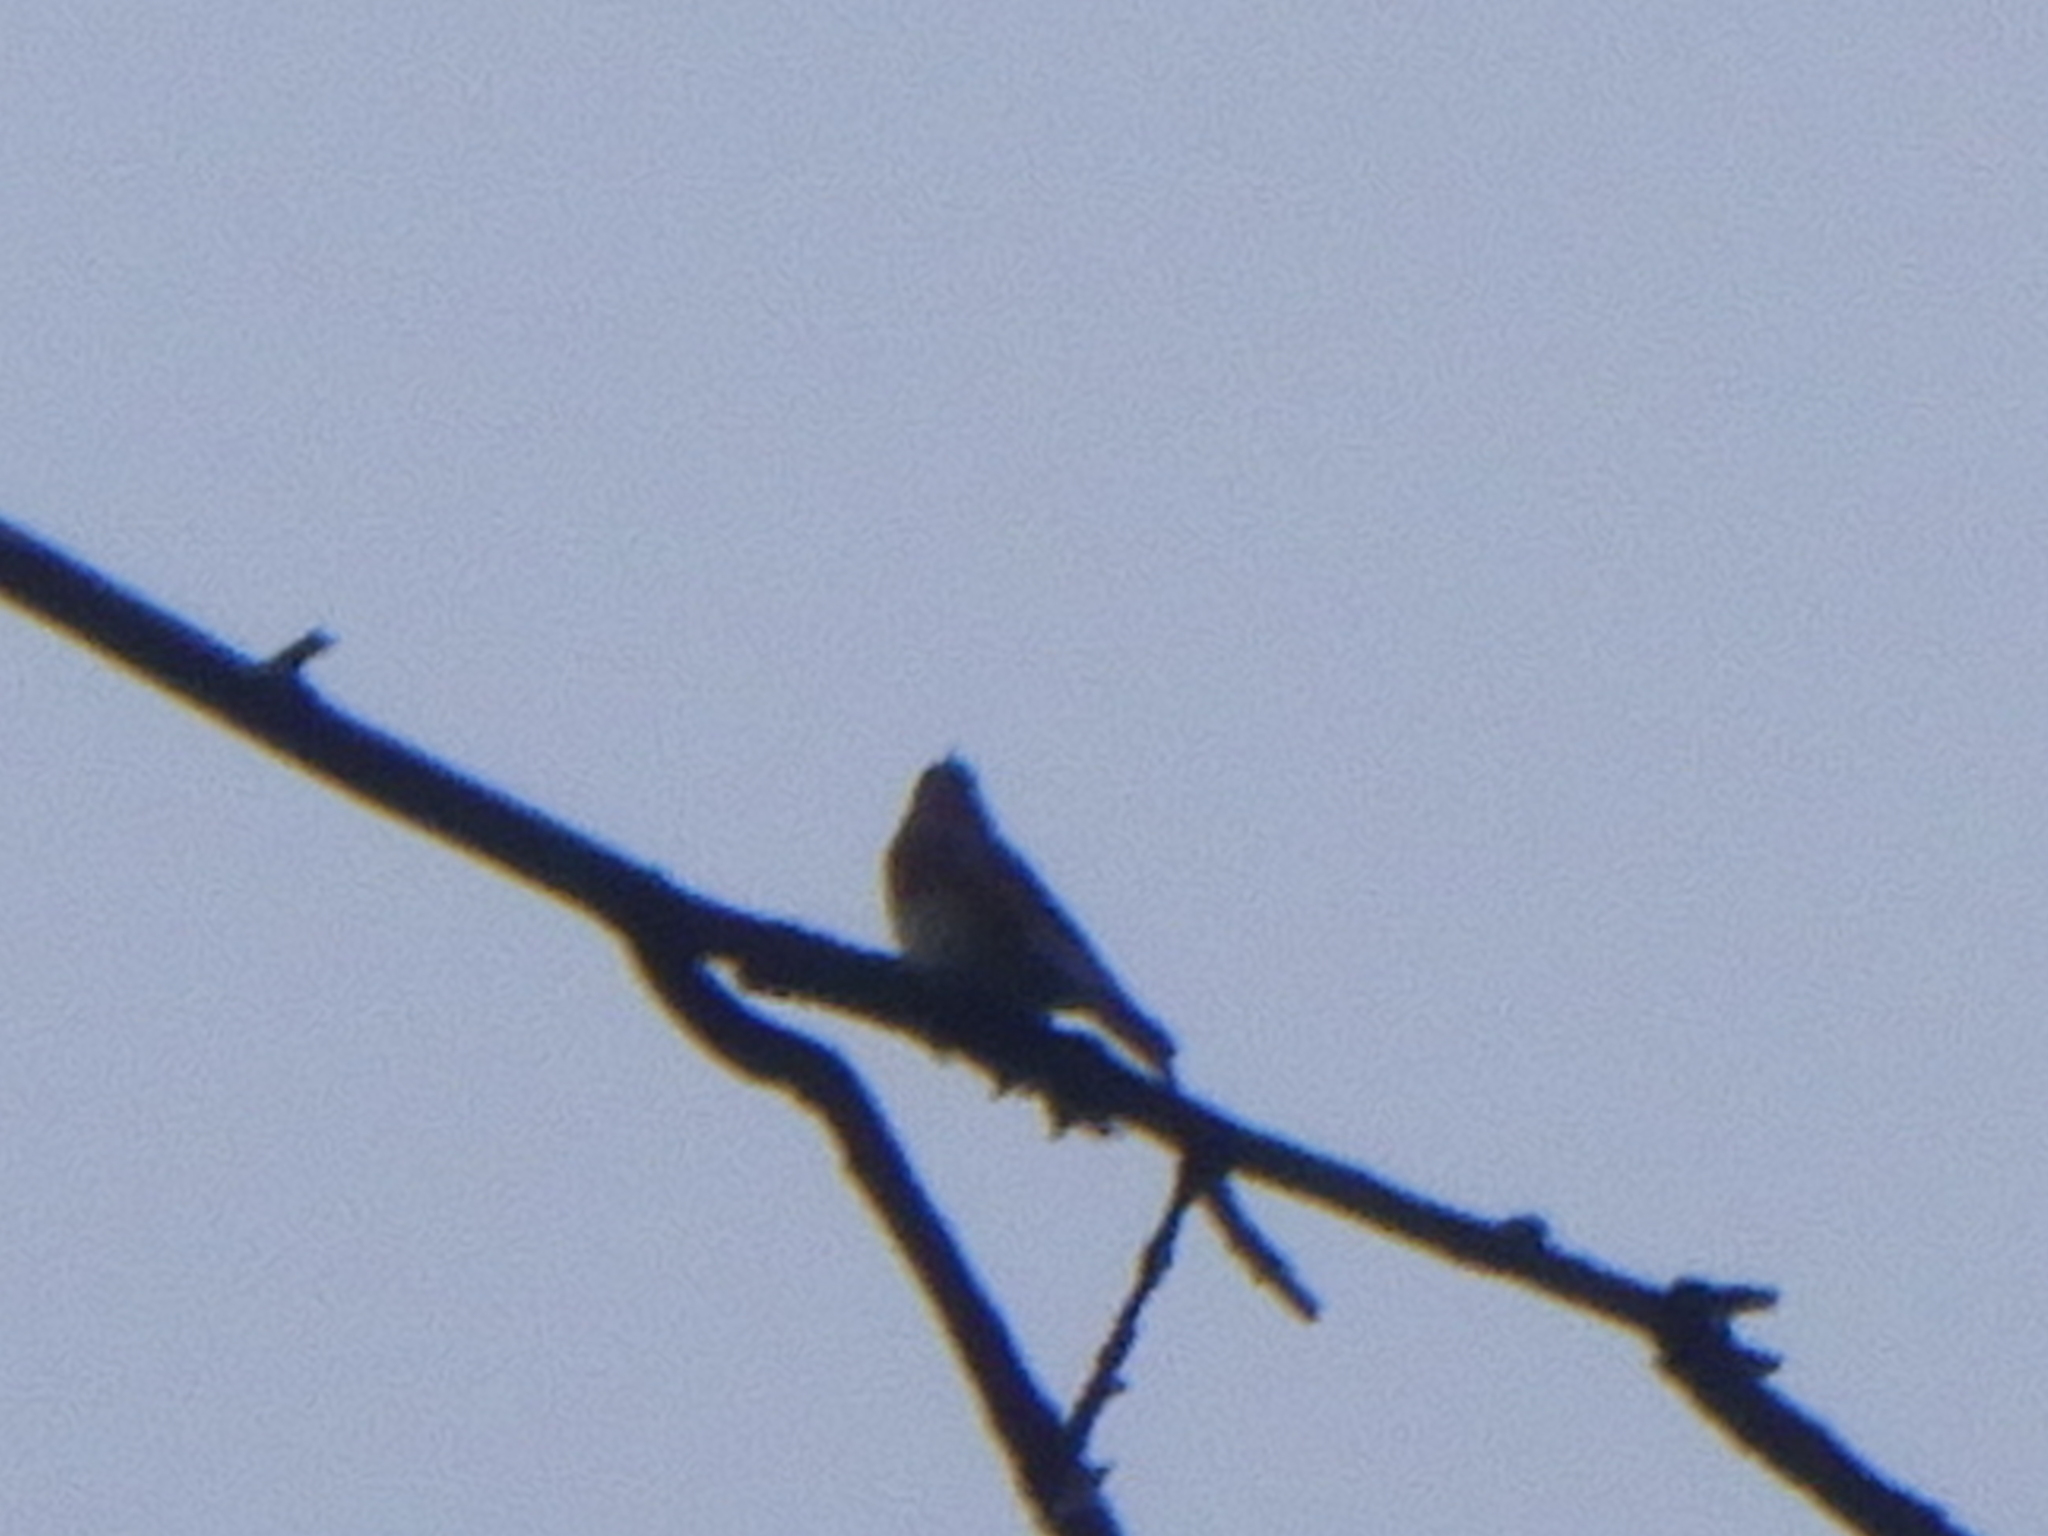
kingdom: Animalia
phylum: Chordata
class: Aves
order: Passeriformes
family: Turdidae
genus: Sialia
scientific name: Sialia sialis
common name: Eastern bluebird
